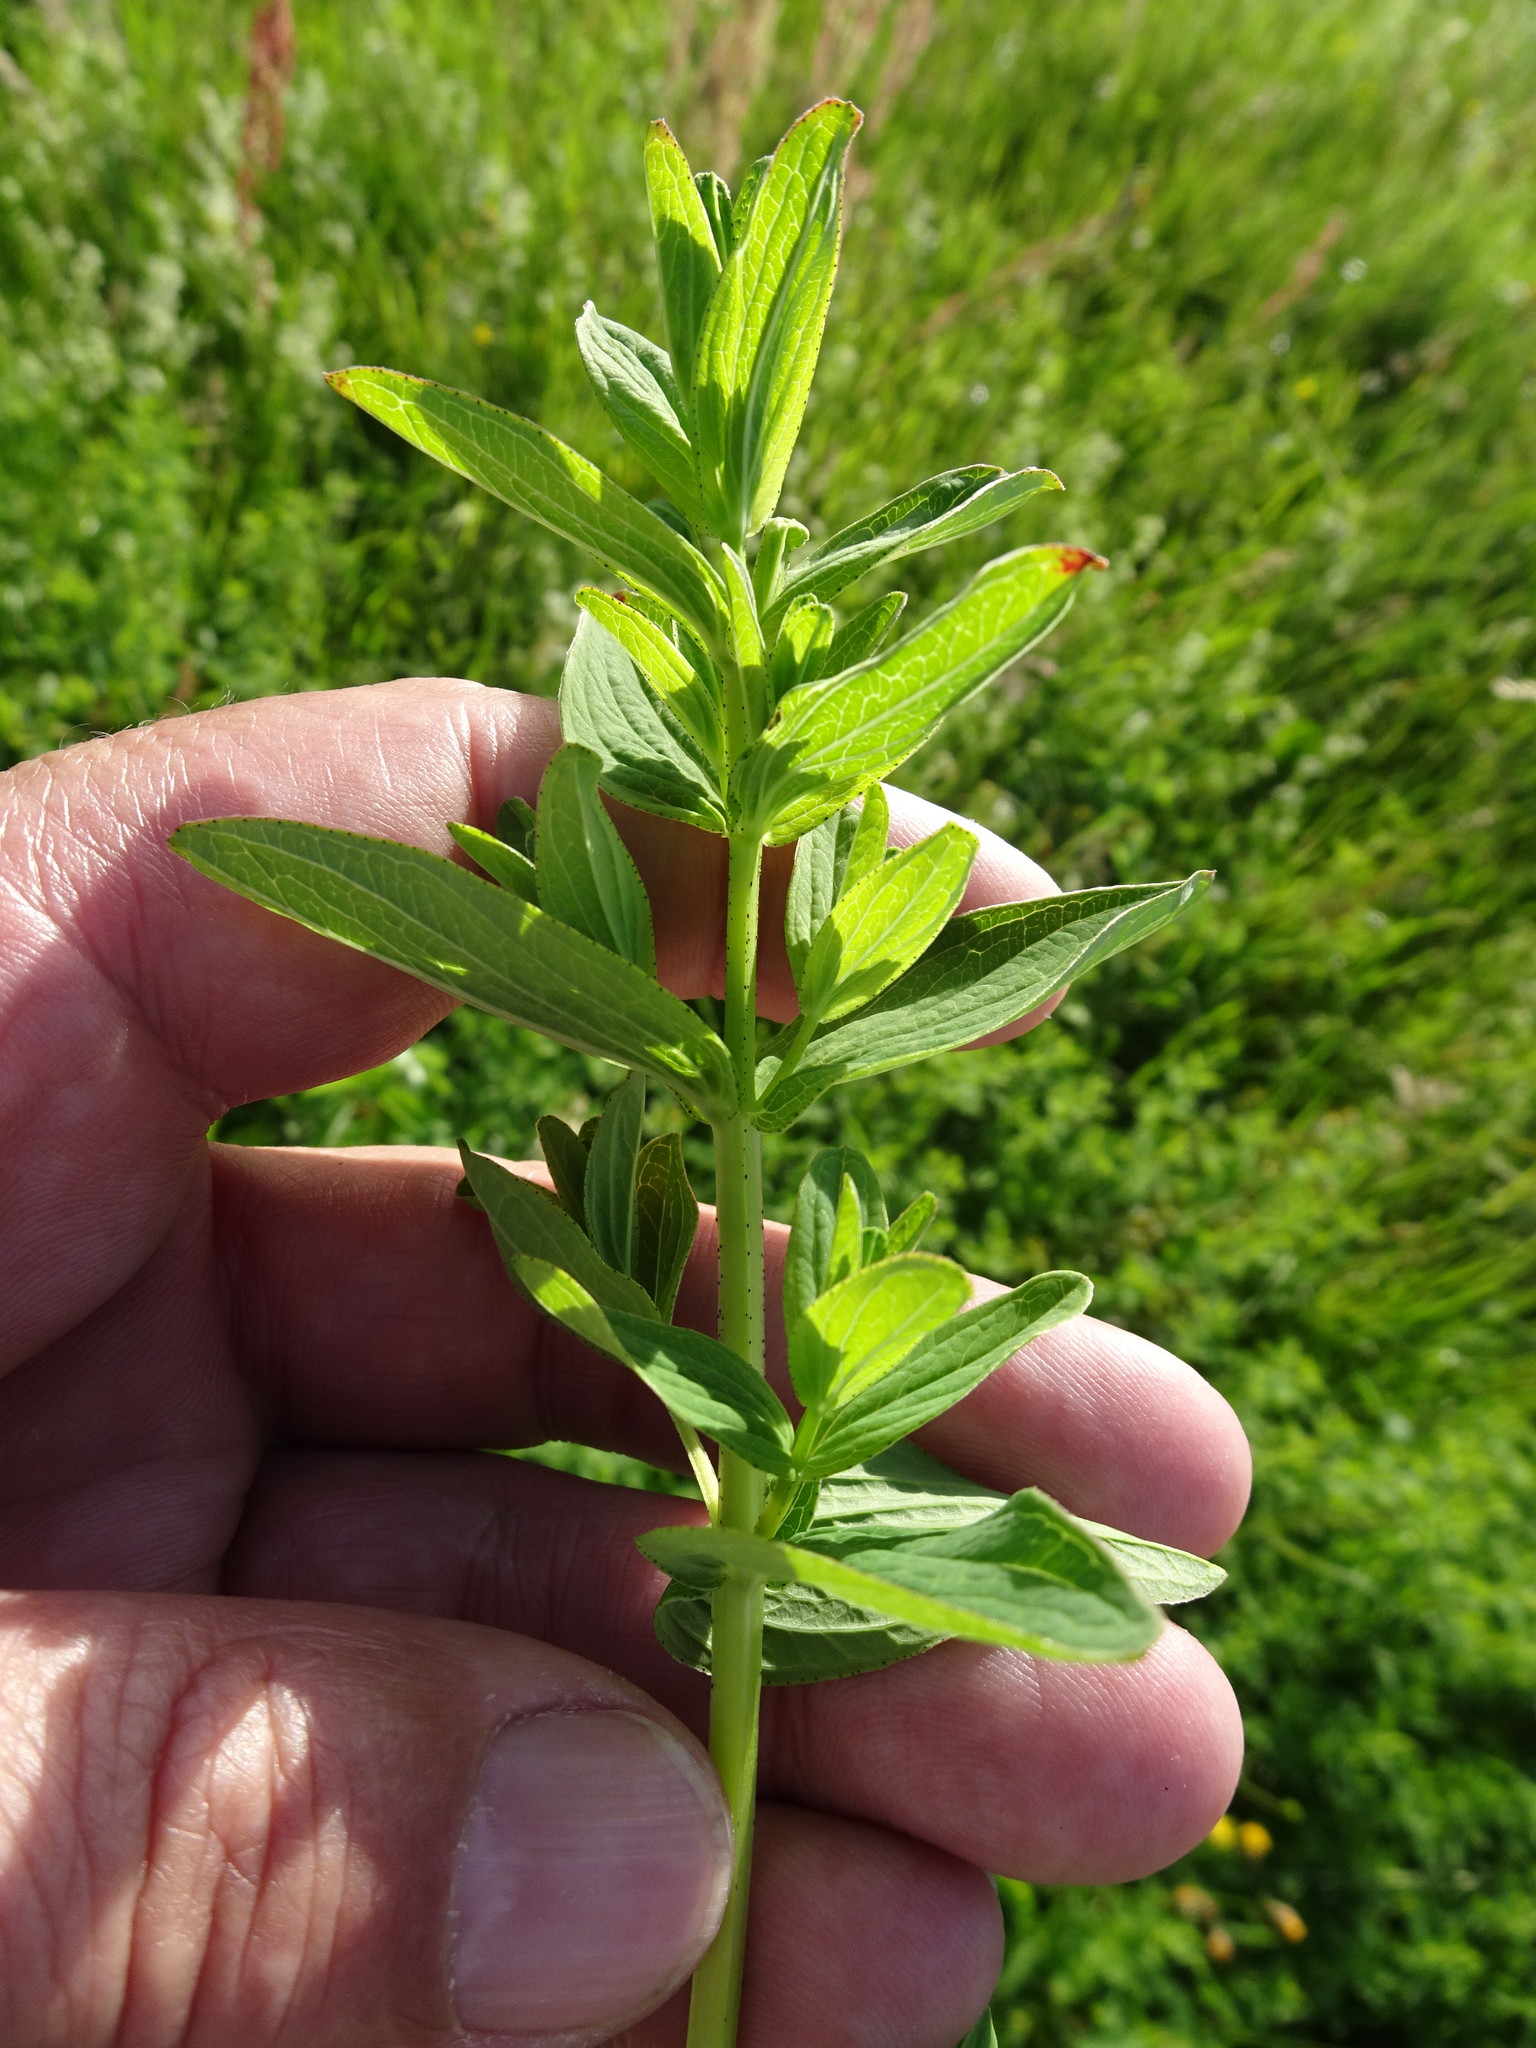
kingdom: Plantae
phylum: Tracheophyta
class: Magnoliopsida
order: Malpighiales
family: Hypericaceae
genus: Hypericum
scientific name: Hypericum tetrapterum
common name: Square-stalked st. john's-wort
